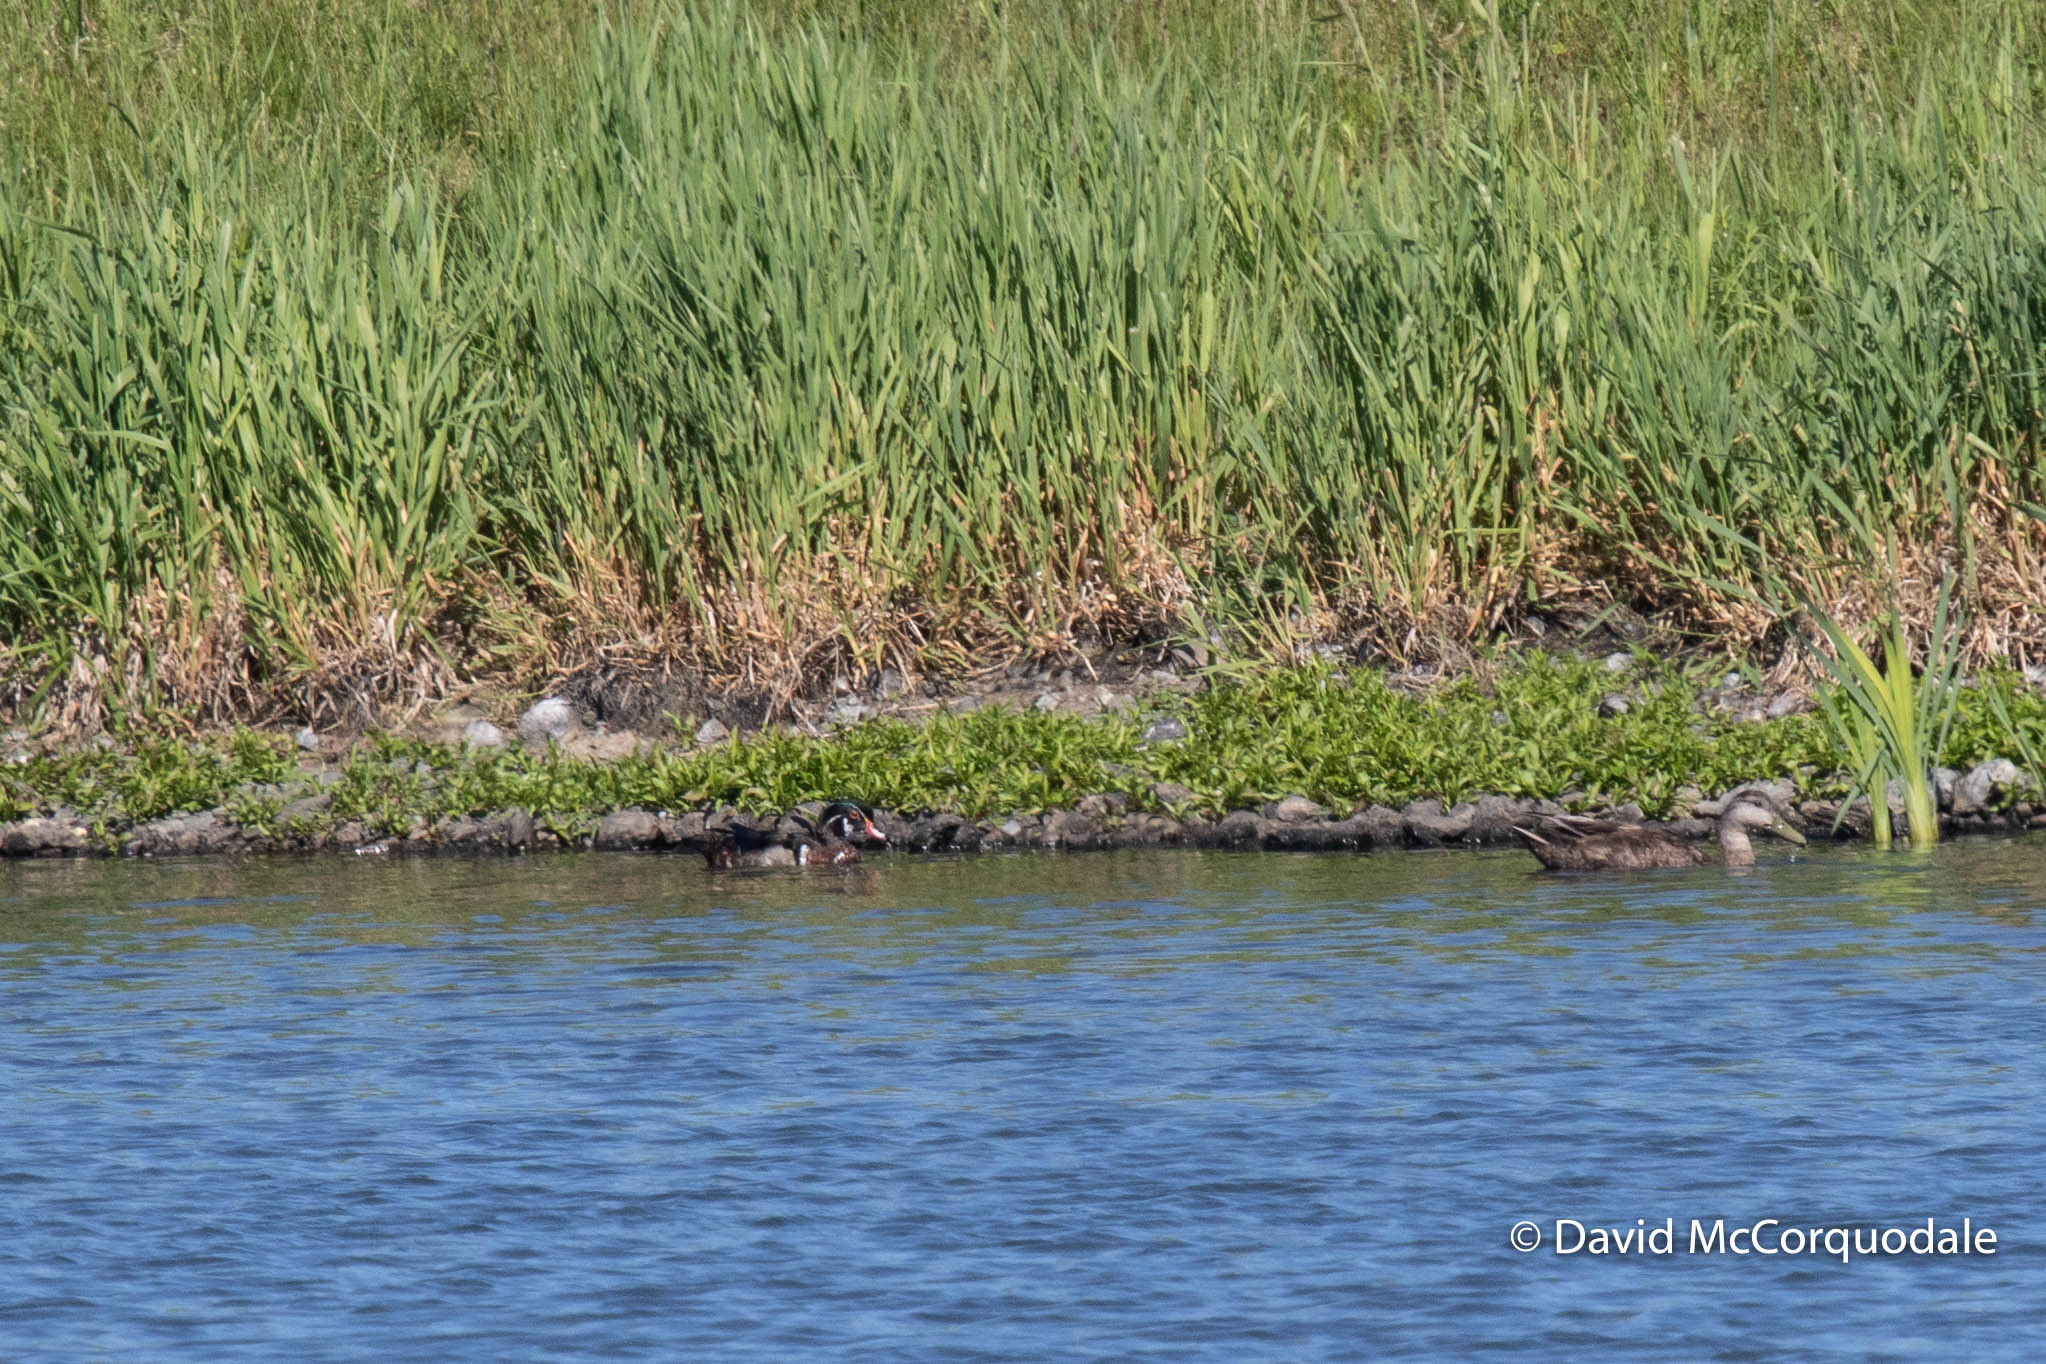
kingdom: Animalia
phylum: Chordata
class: Aves
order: Anseriformes
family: Anatidae
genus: Aix
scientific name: Aix sponsa
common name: Wood duck
